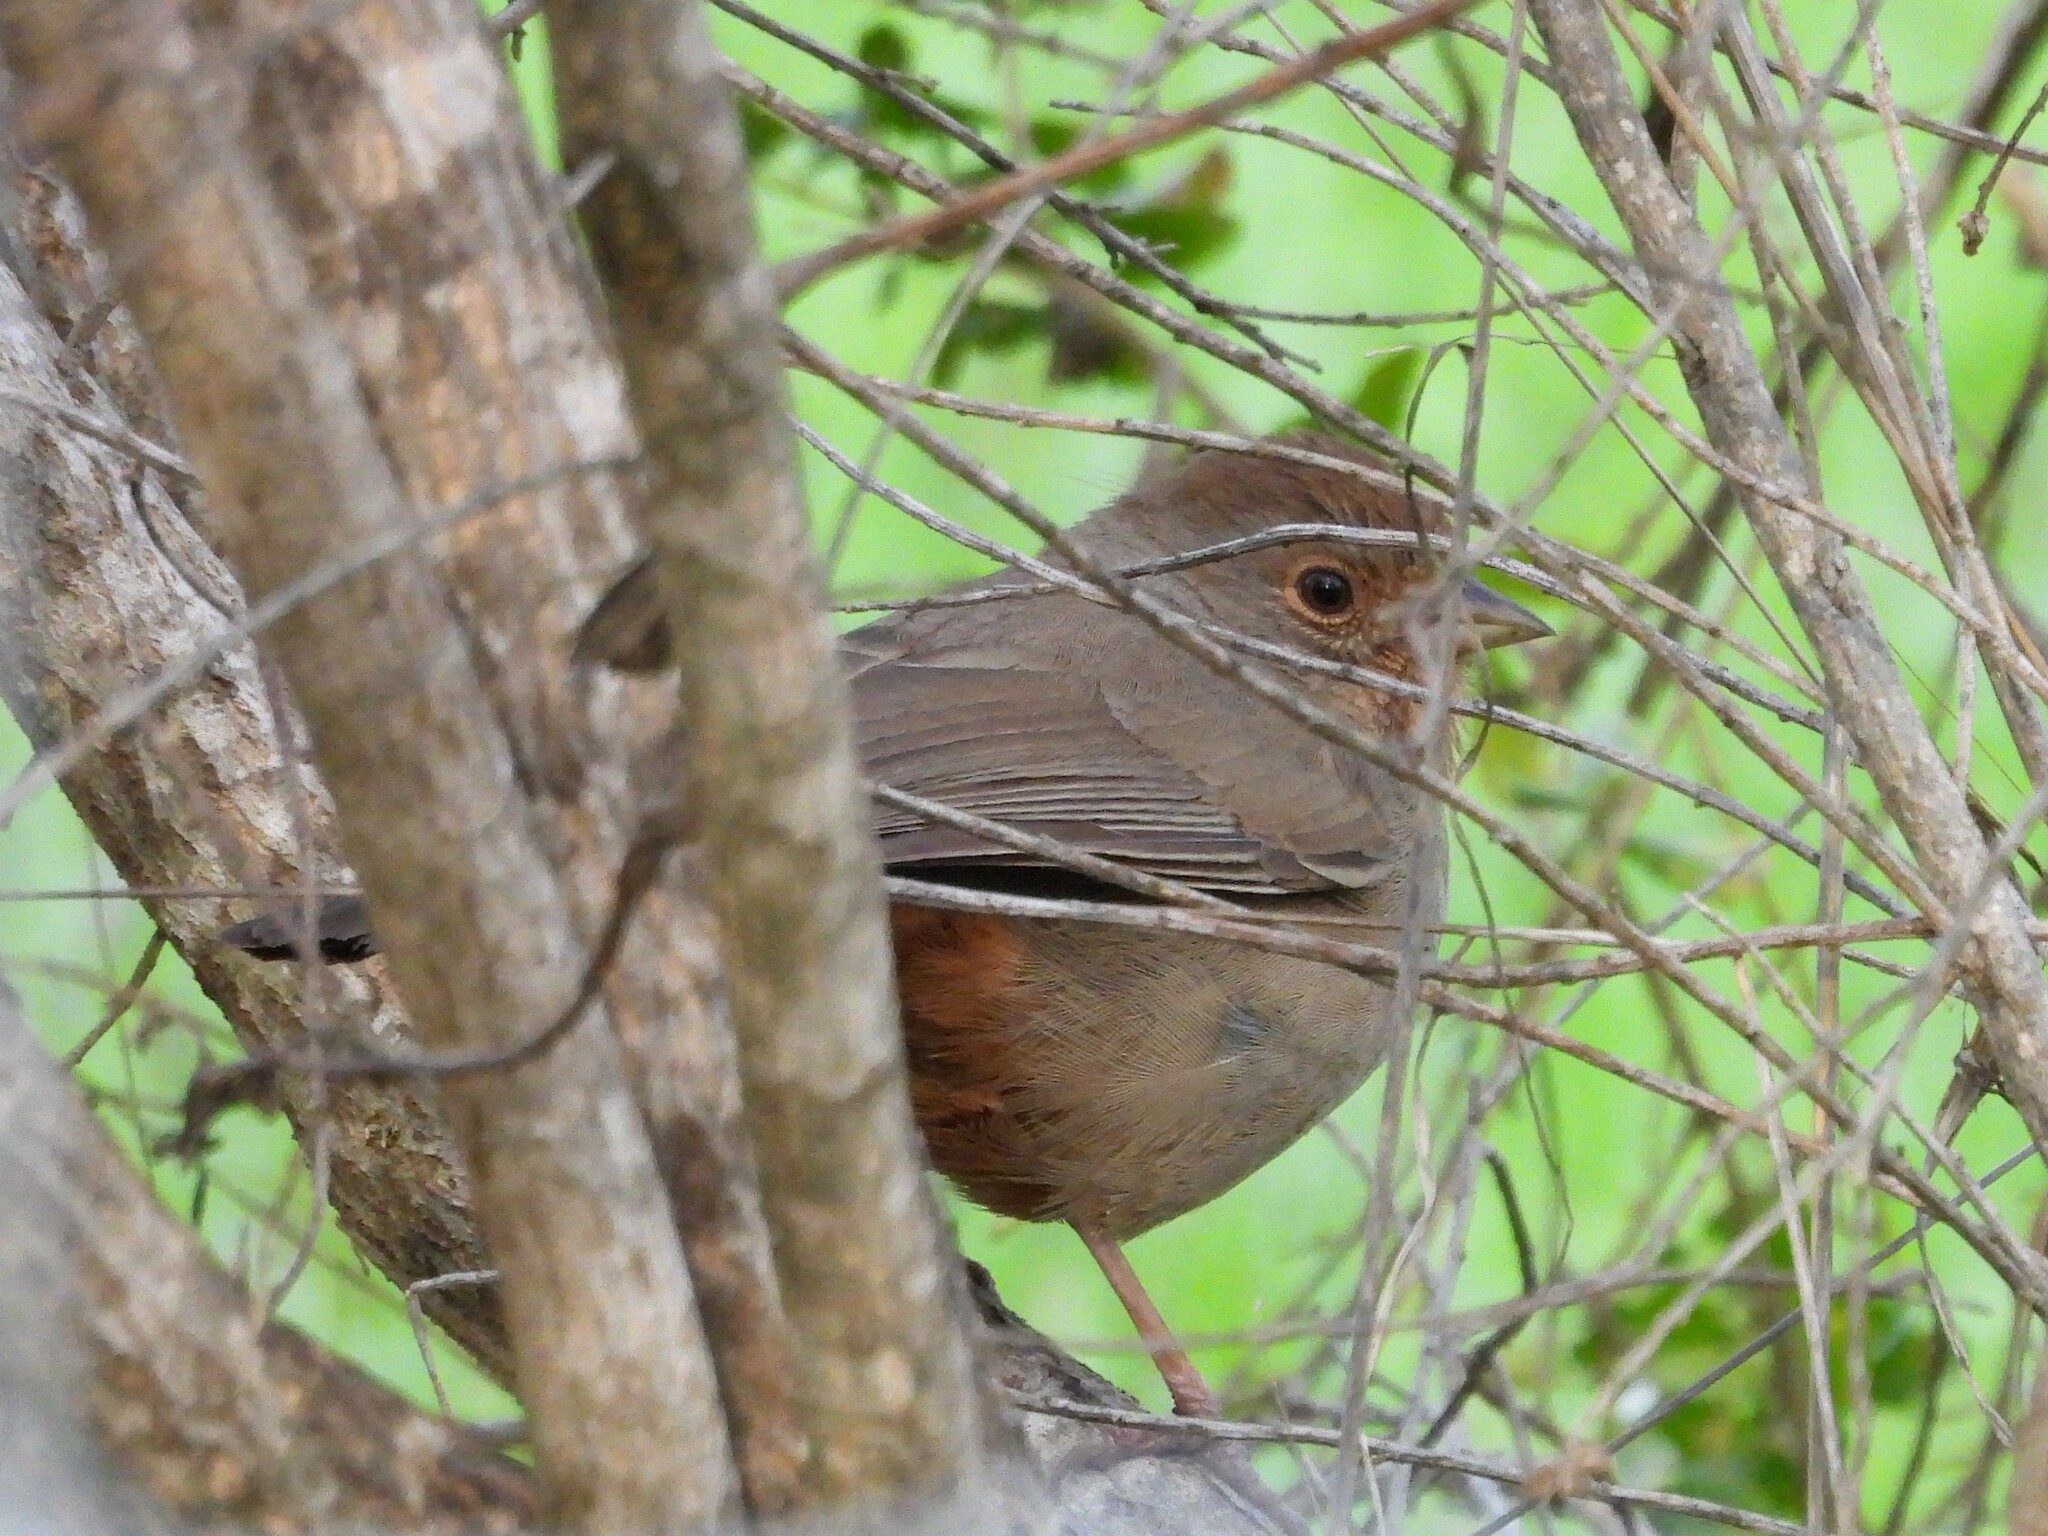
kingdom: Animalia
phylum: Chordata
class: Aves
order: Passeriformes
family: Passerellidae
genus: Melozone
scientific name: Melozone crissalis
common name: California towhee
